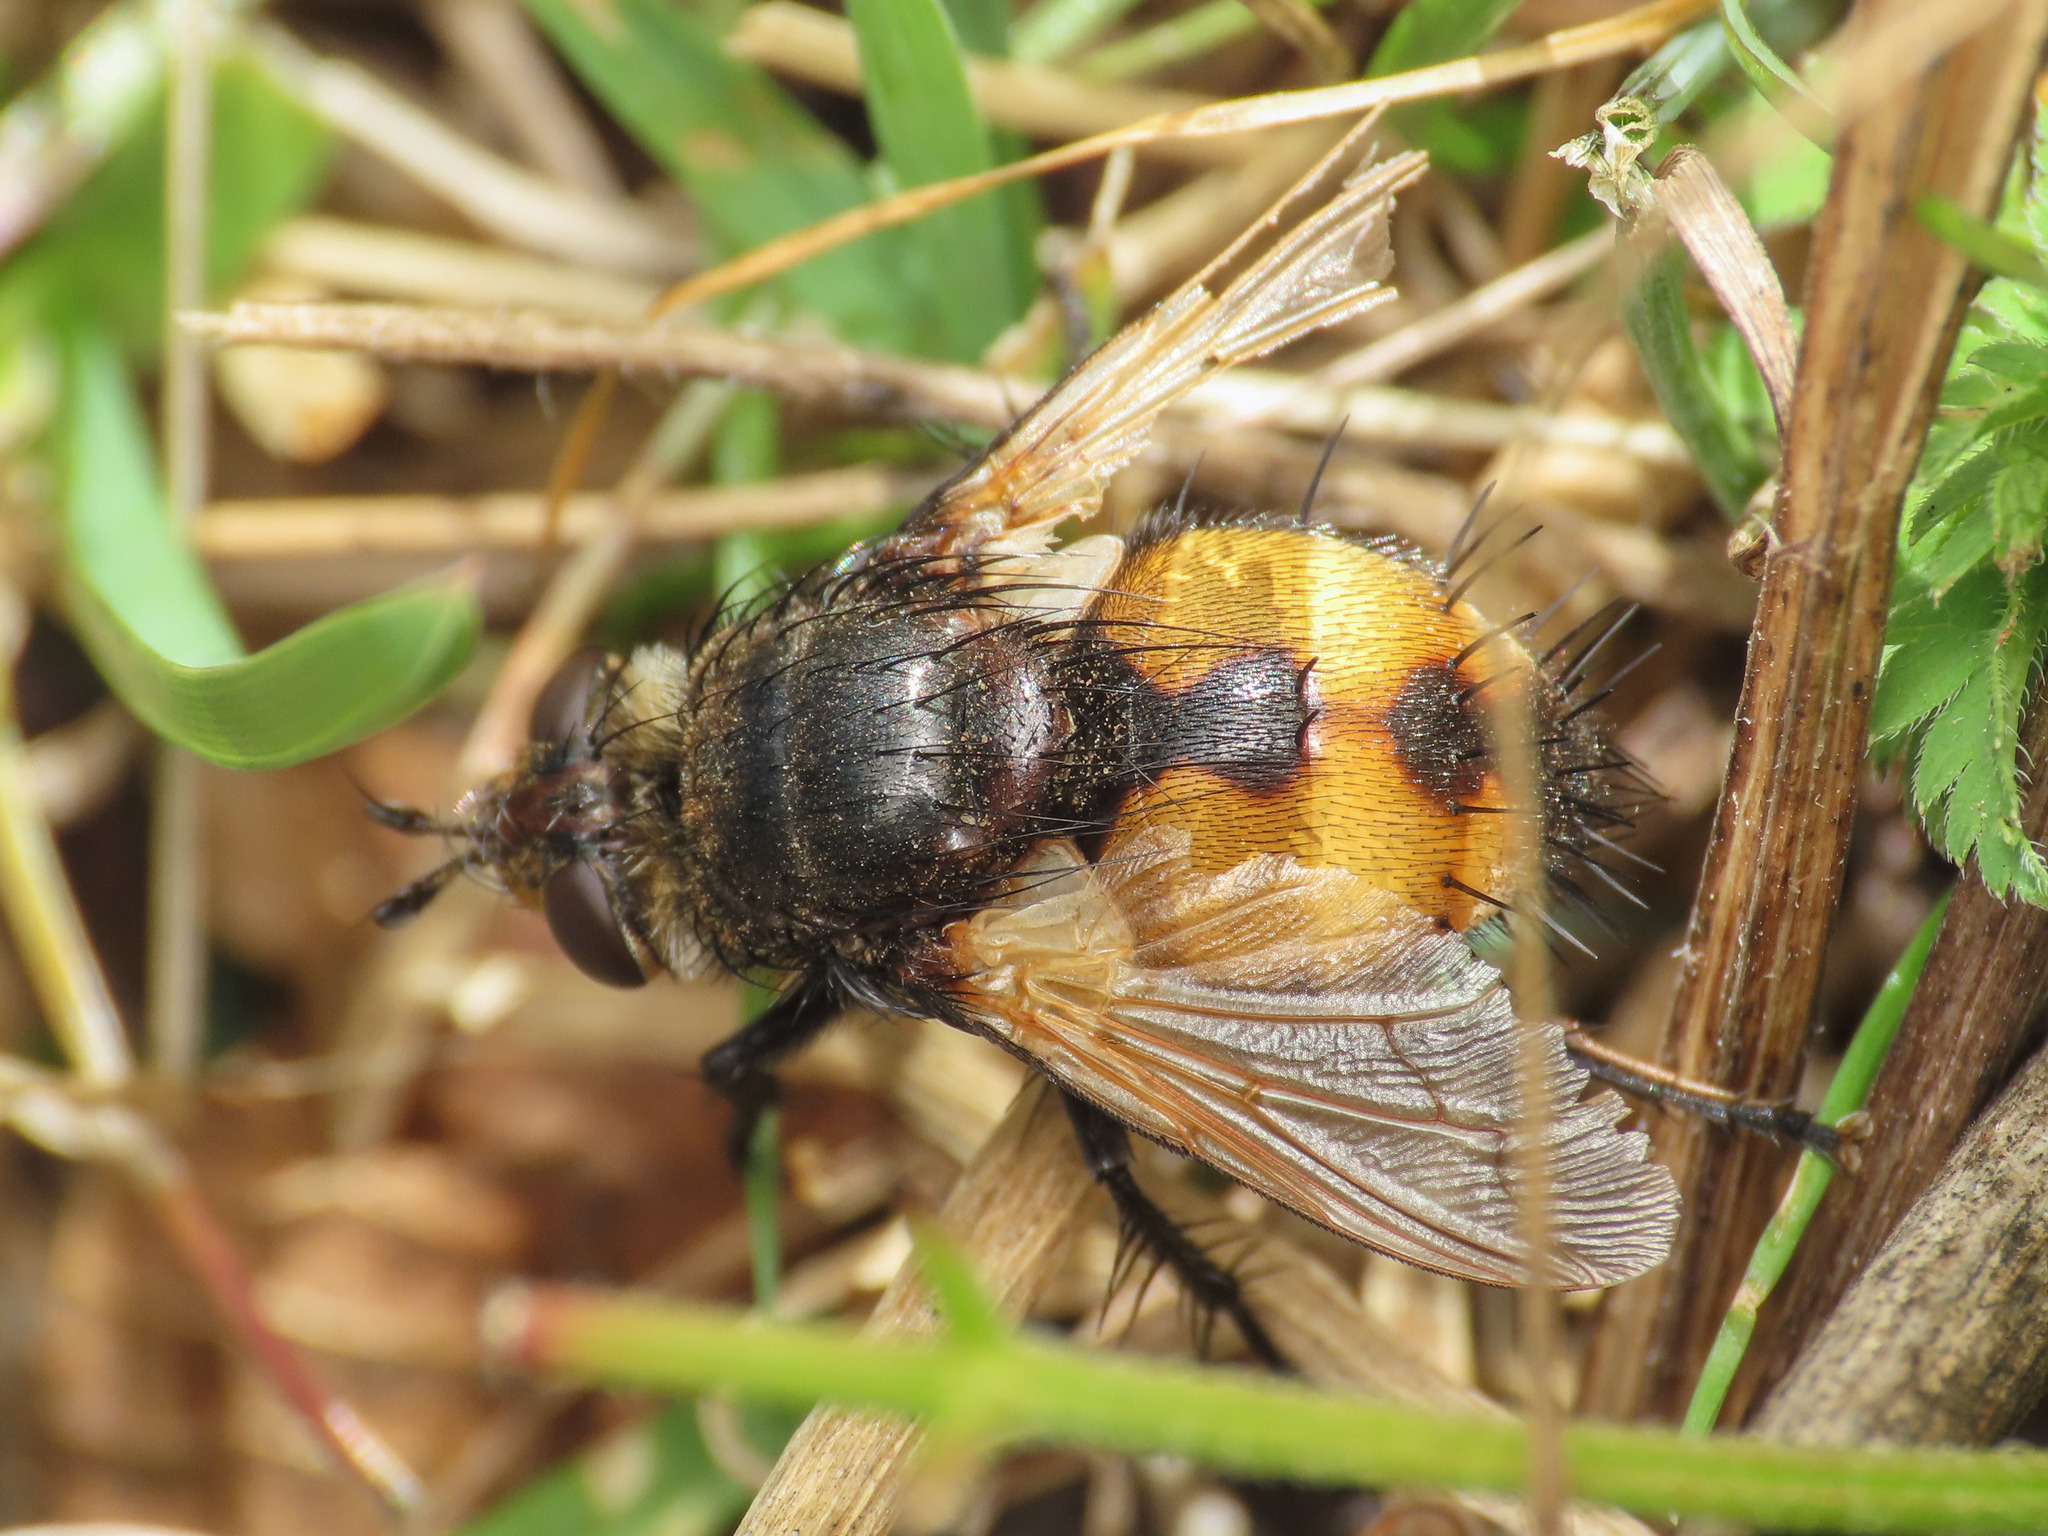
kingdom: Animalia
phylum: Arthropoda
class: Insecta
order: Diptera
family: Tachinidae
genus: Nowickia
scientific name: Nowickia ferox
